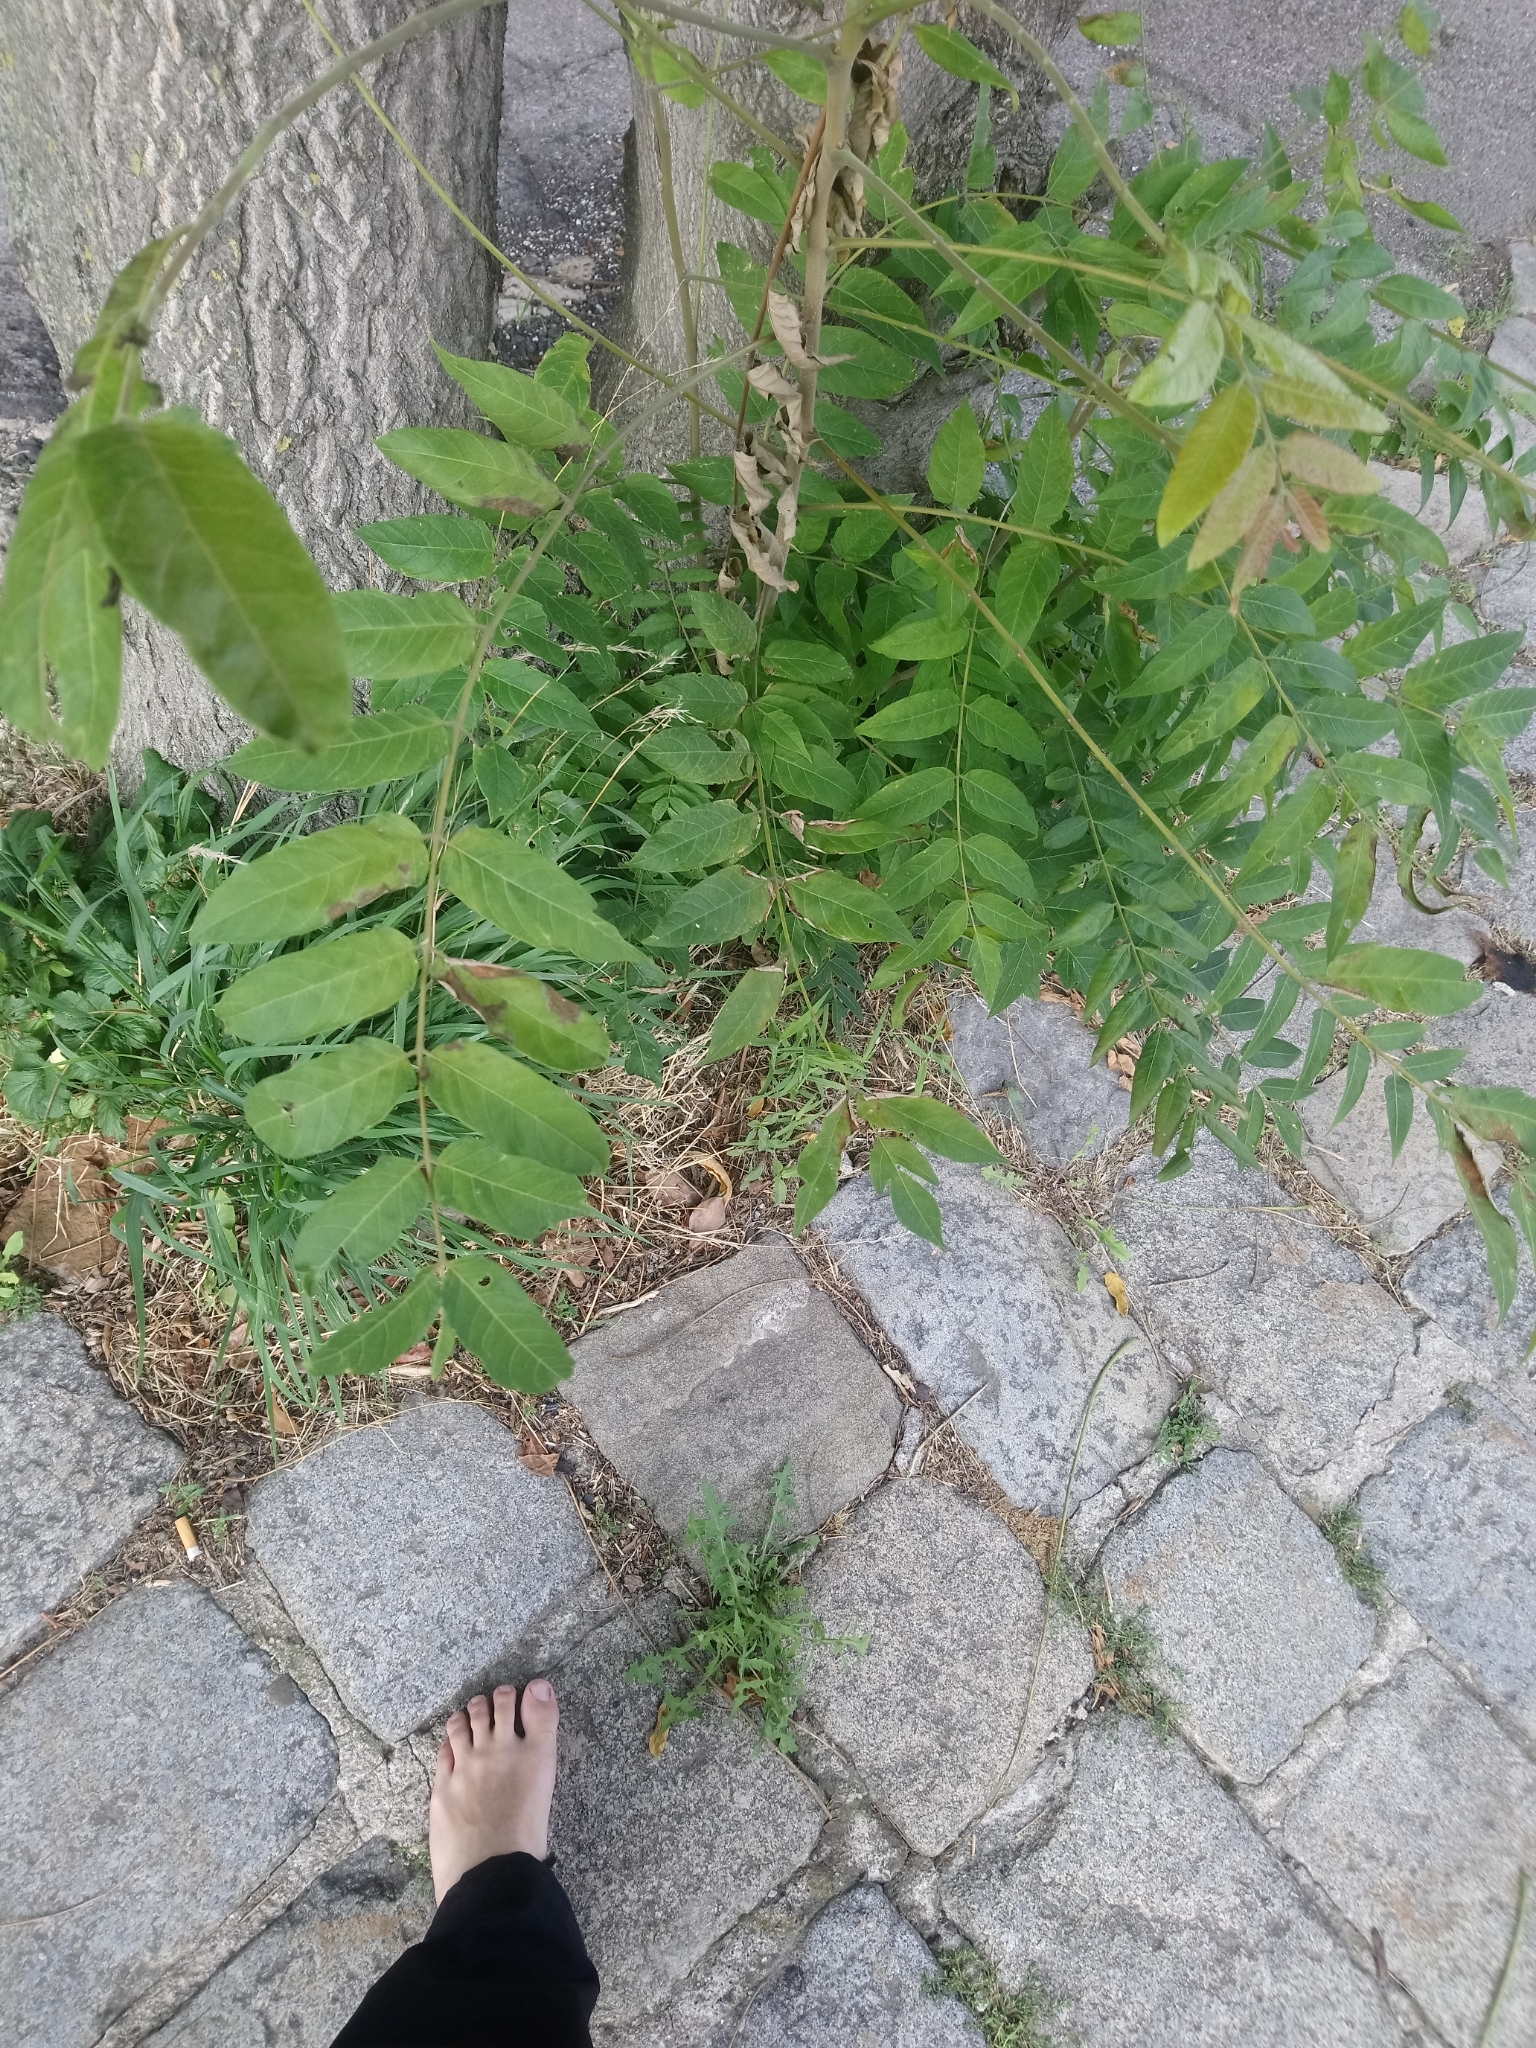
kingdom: Plantae
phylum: Tracheophyta
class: Magnoliopsida
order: Sapindales
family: Simaroubaceae
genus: Ailanthus
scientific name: Ailanthus altissima
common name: Tree-of-heaven
